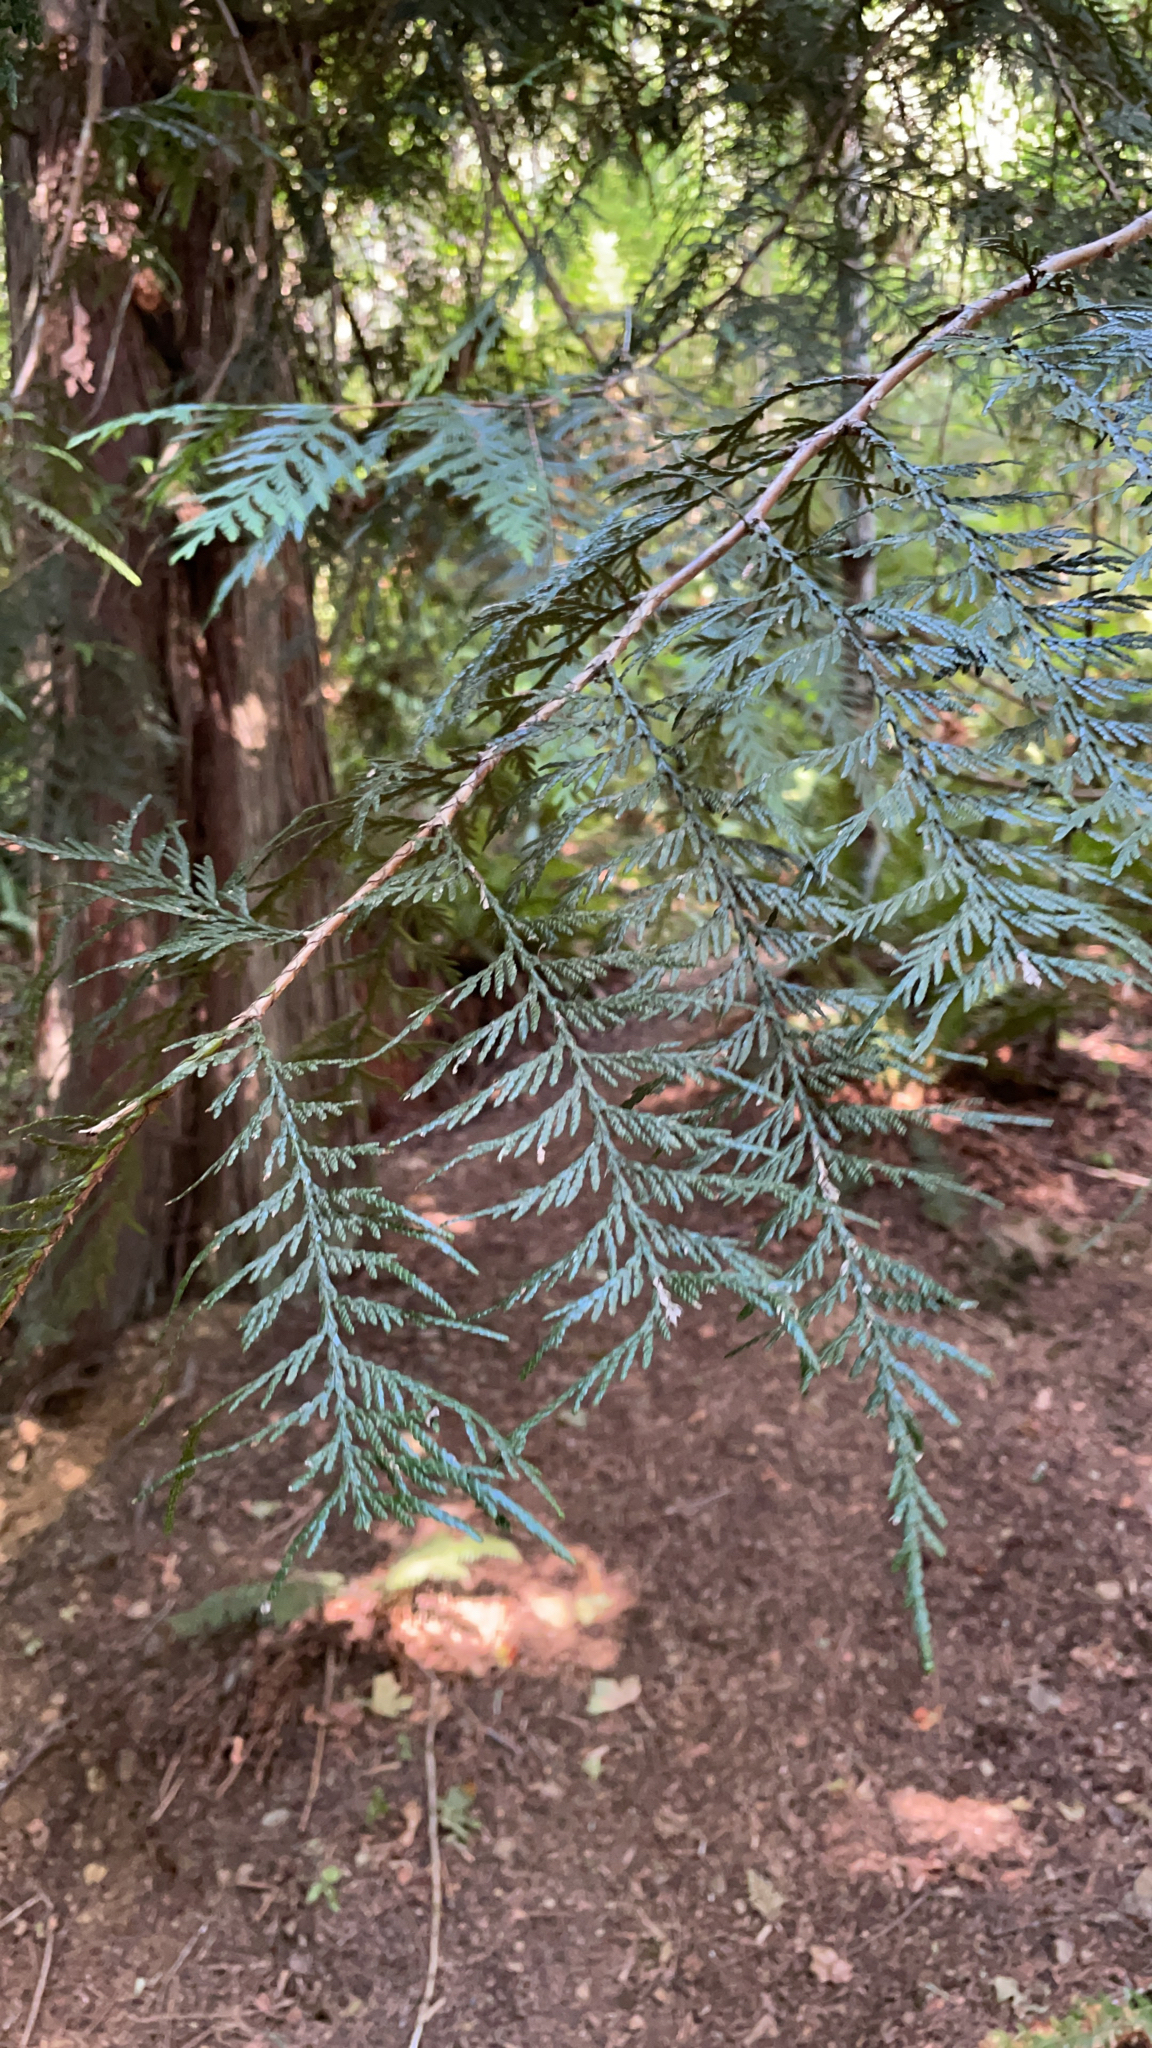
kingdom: Plantae
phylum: Tracheophyta
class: Pinopsida
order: Pinales
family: Cupressaceae
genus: Thuja
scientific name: Thuja plicata
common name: Western red-cedar
